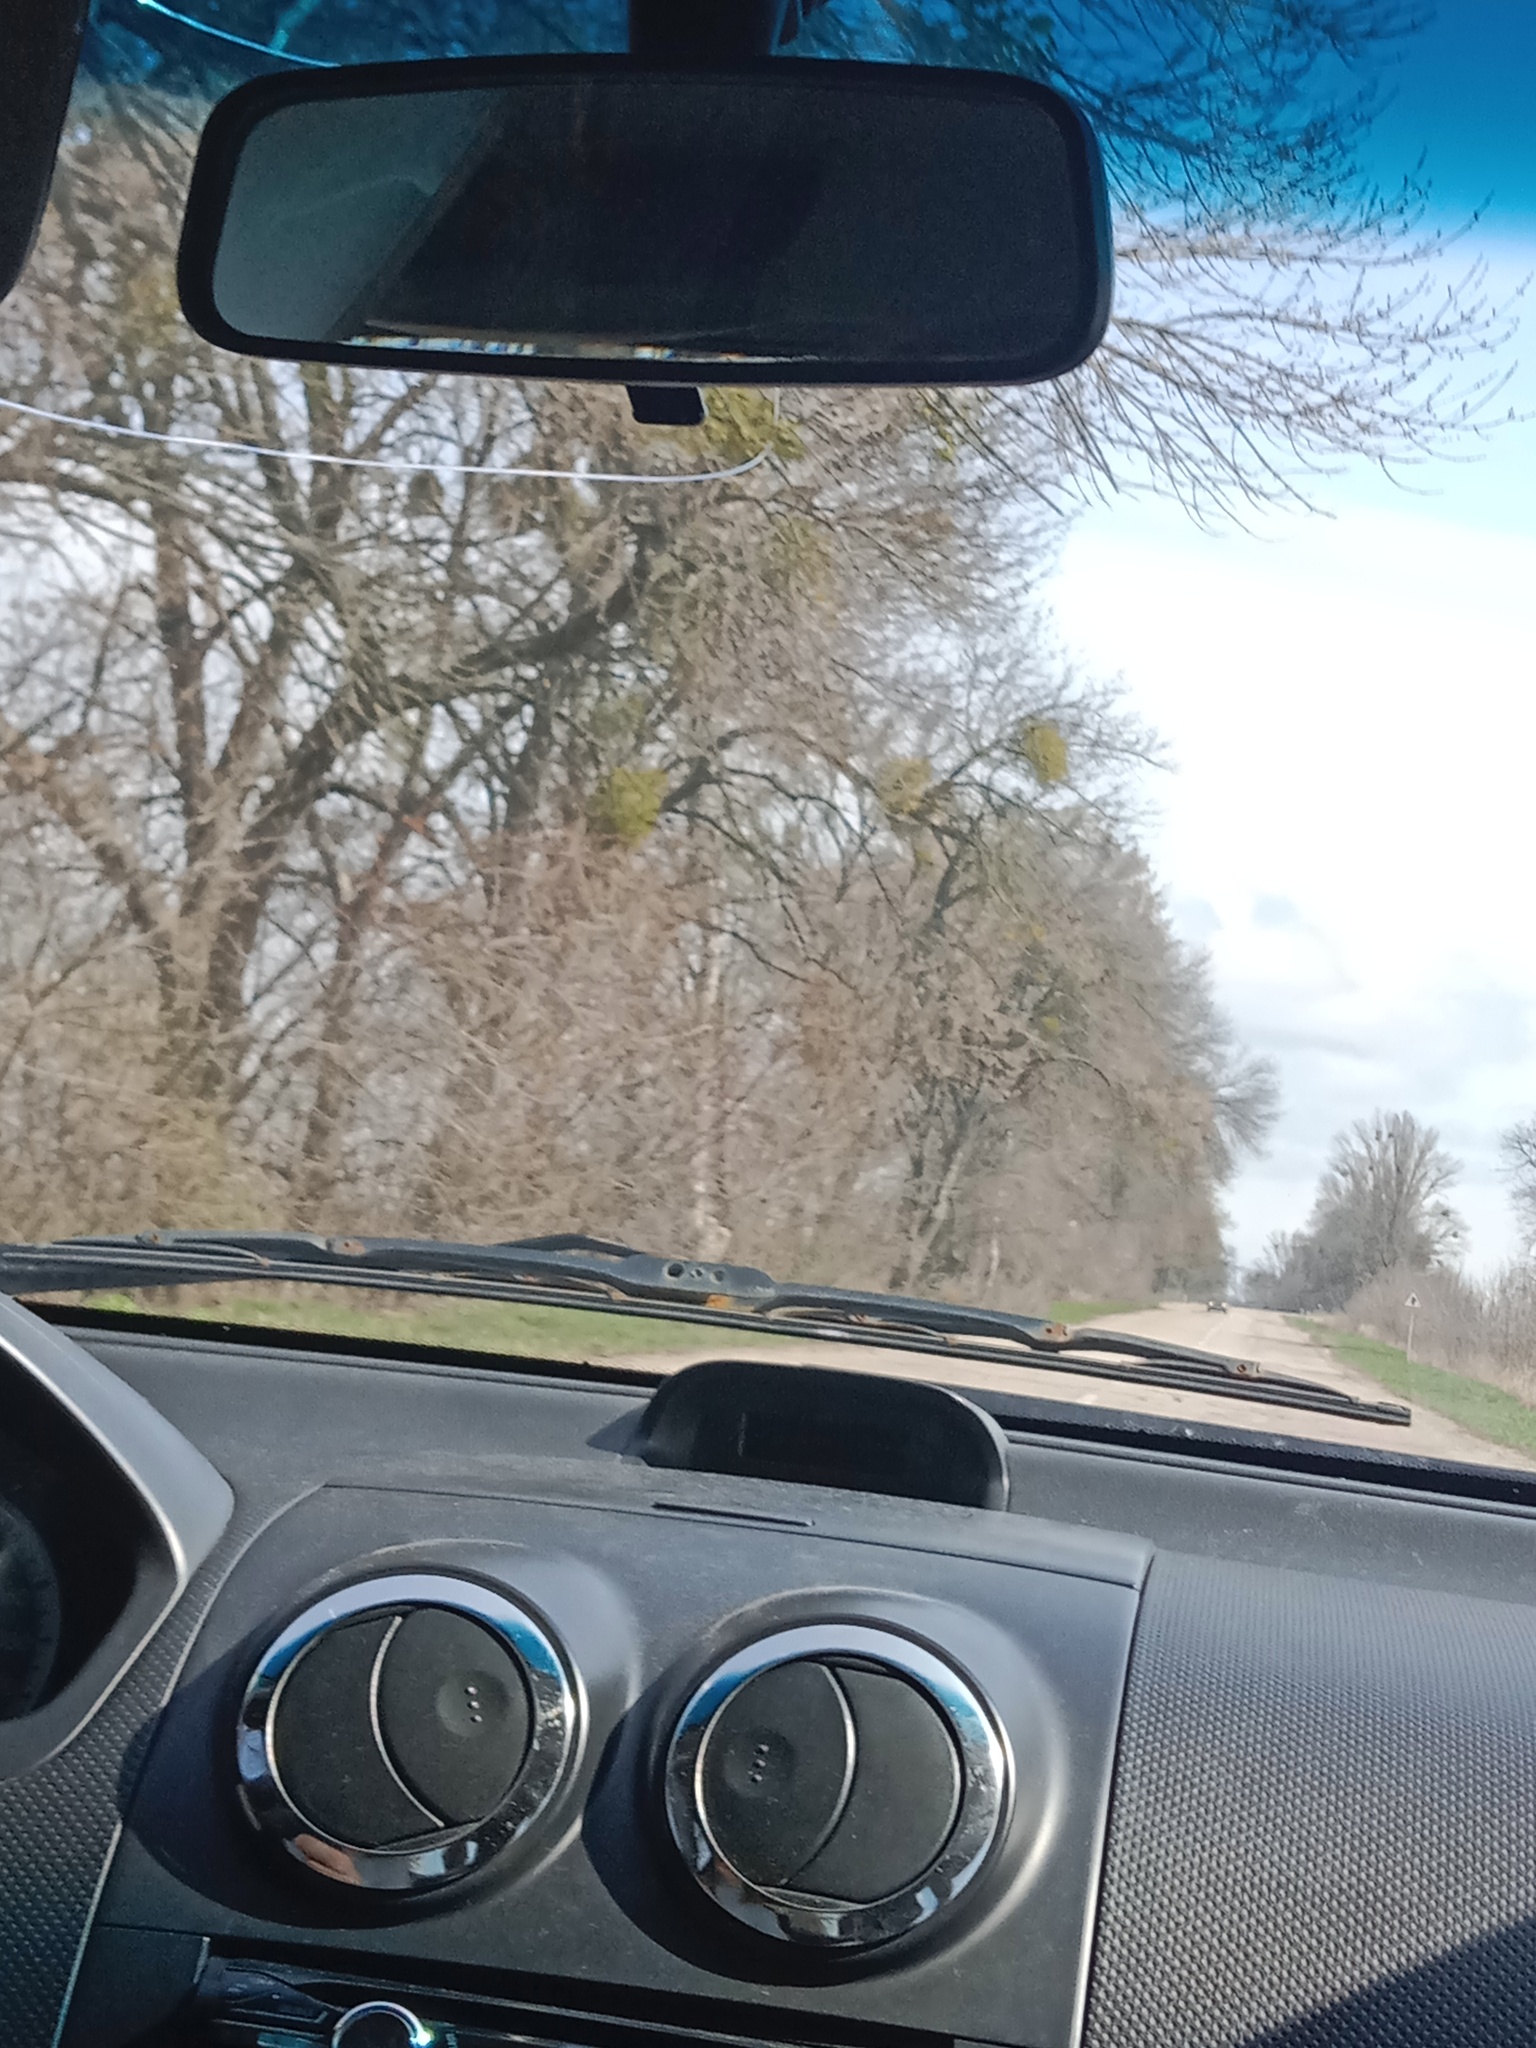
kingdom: Plantae
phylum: Tracheophyta
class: Magnoliopsida
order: Santalales
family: Viscaceae
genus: Viscum
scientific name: Viscum album
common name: Mistletoe
